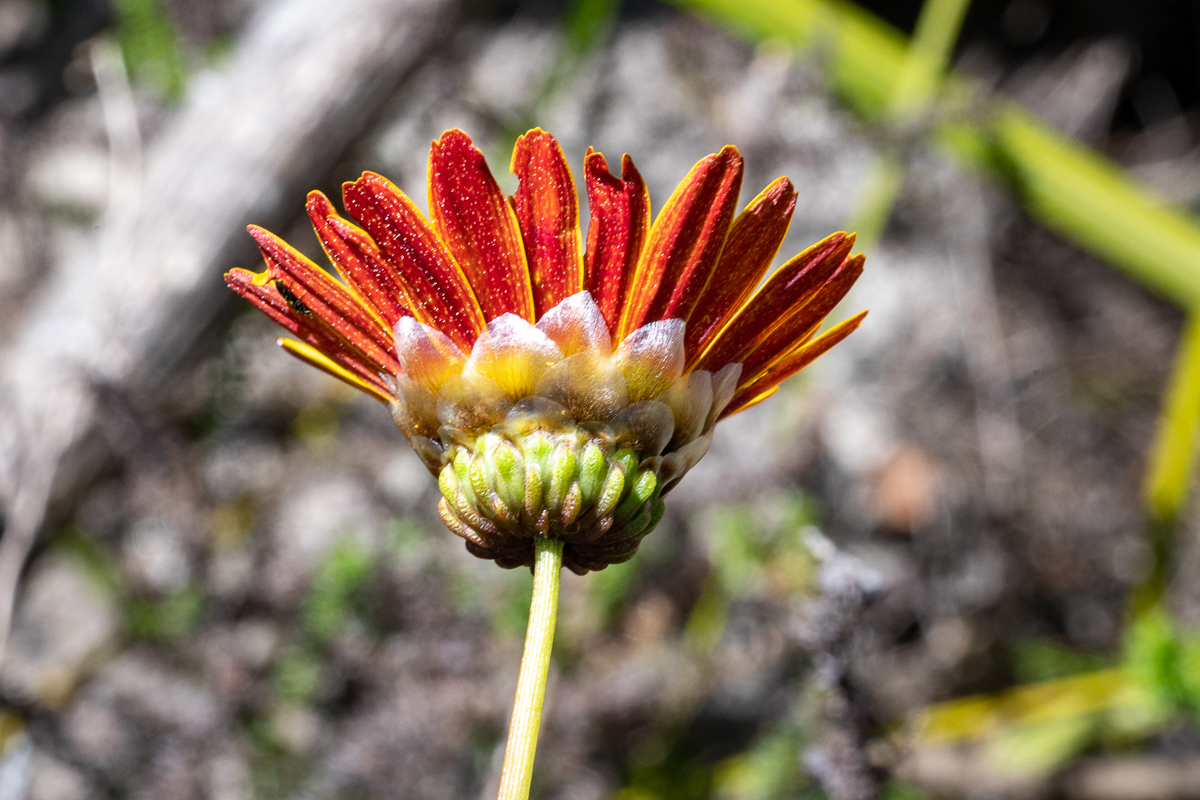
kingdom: Plantae
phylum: Tracheophyta
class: Magnoliopsida
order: Asterales
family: Asteraceae
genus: Ursinia
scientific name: Ursinia paleacea
